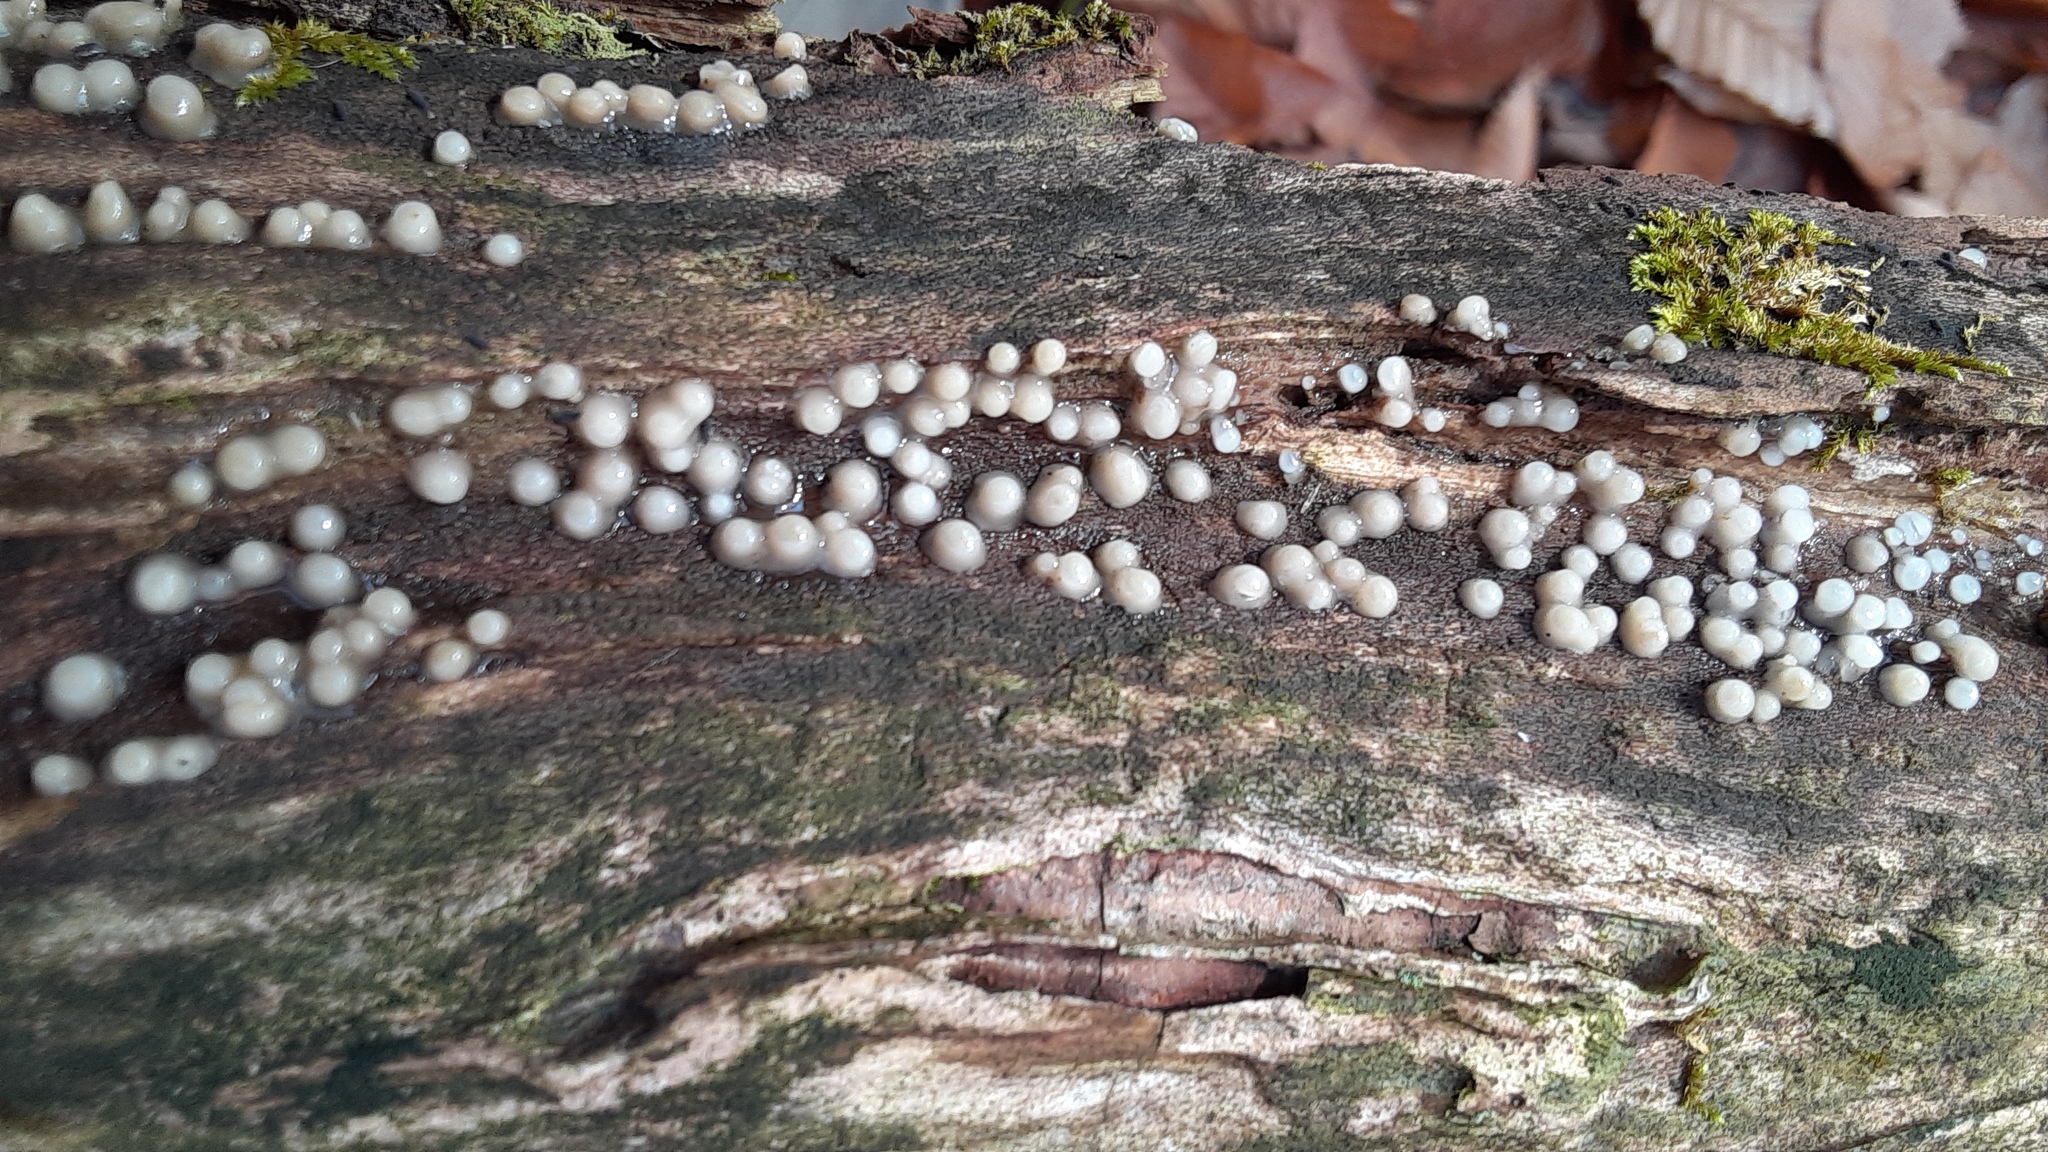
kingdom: Fungi
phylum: Basidiomycota
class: Atractiellomycetes
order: Atractiellales
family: Phleogenaceae
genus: Helicogloea
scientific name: Helicogloea compressa
